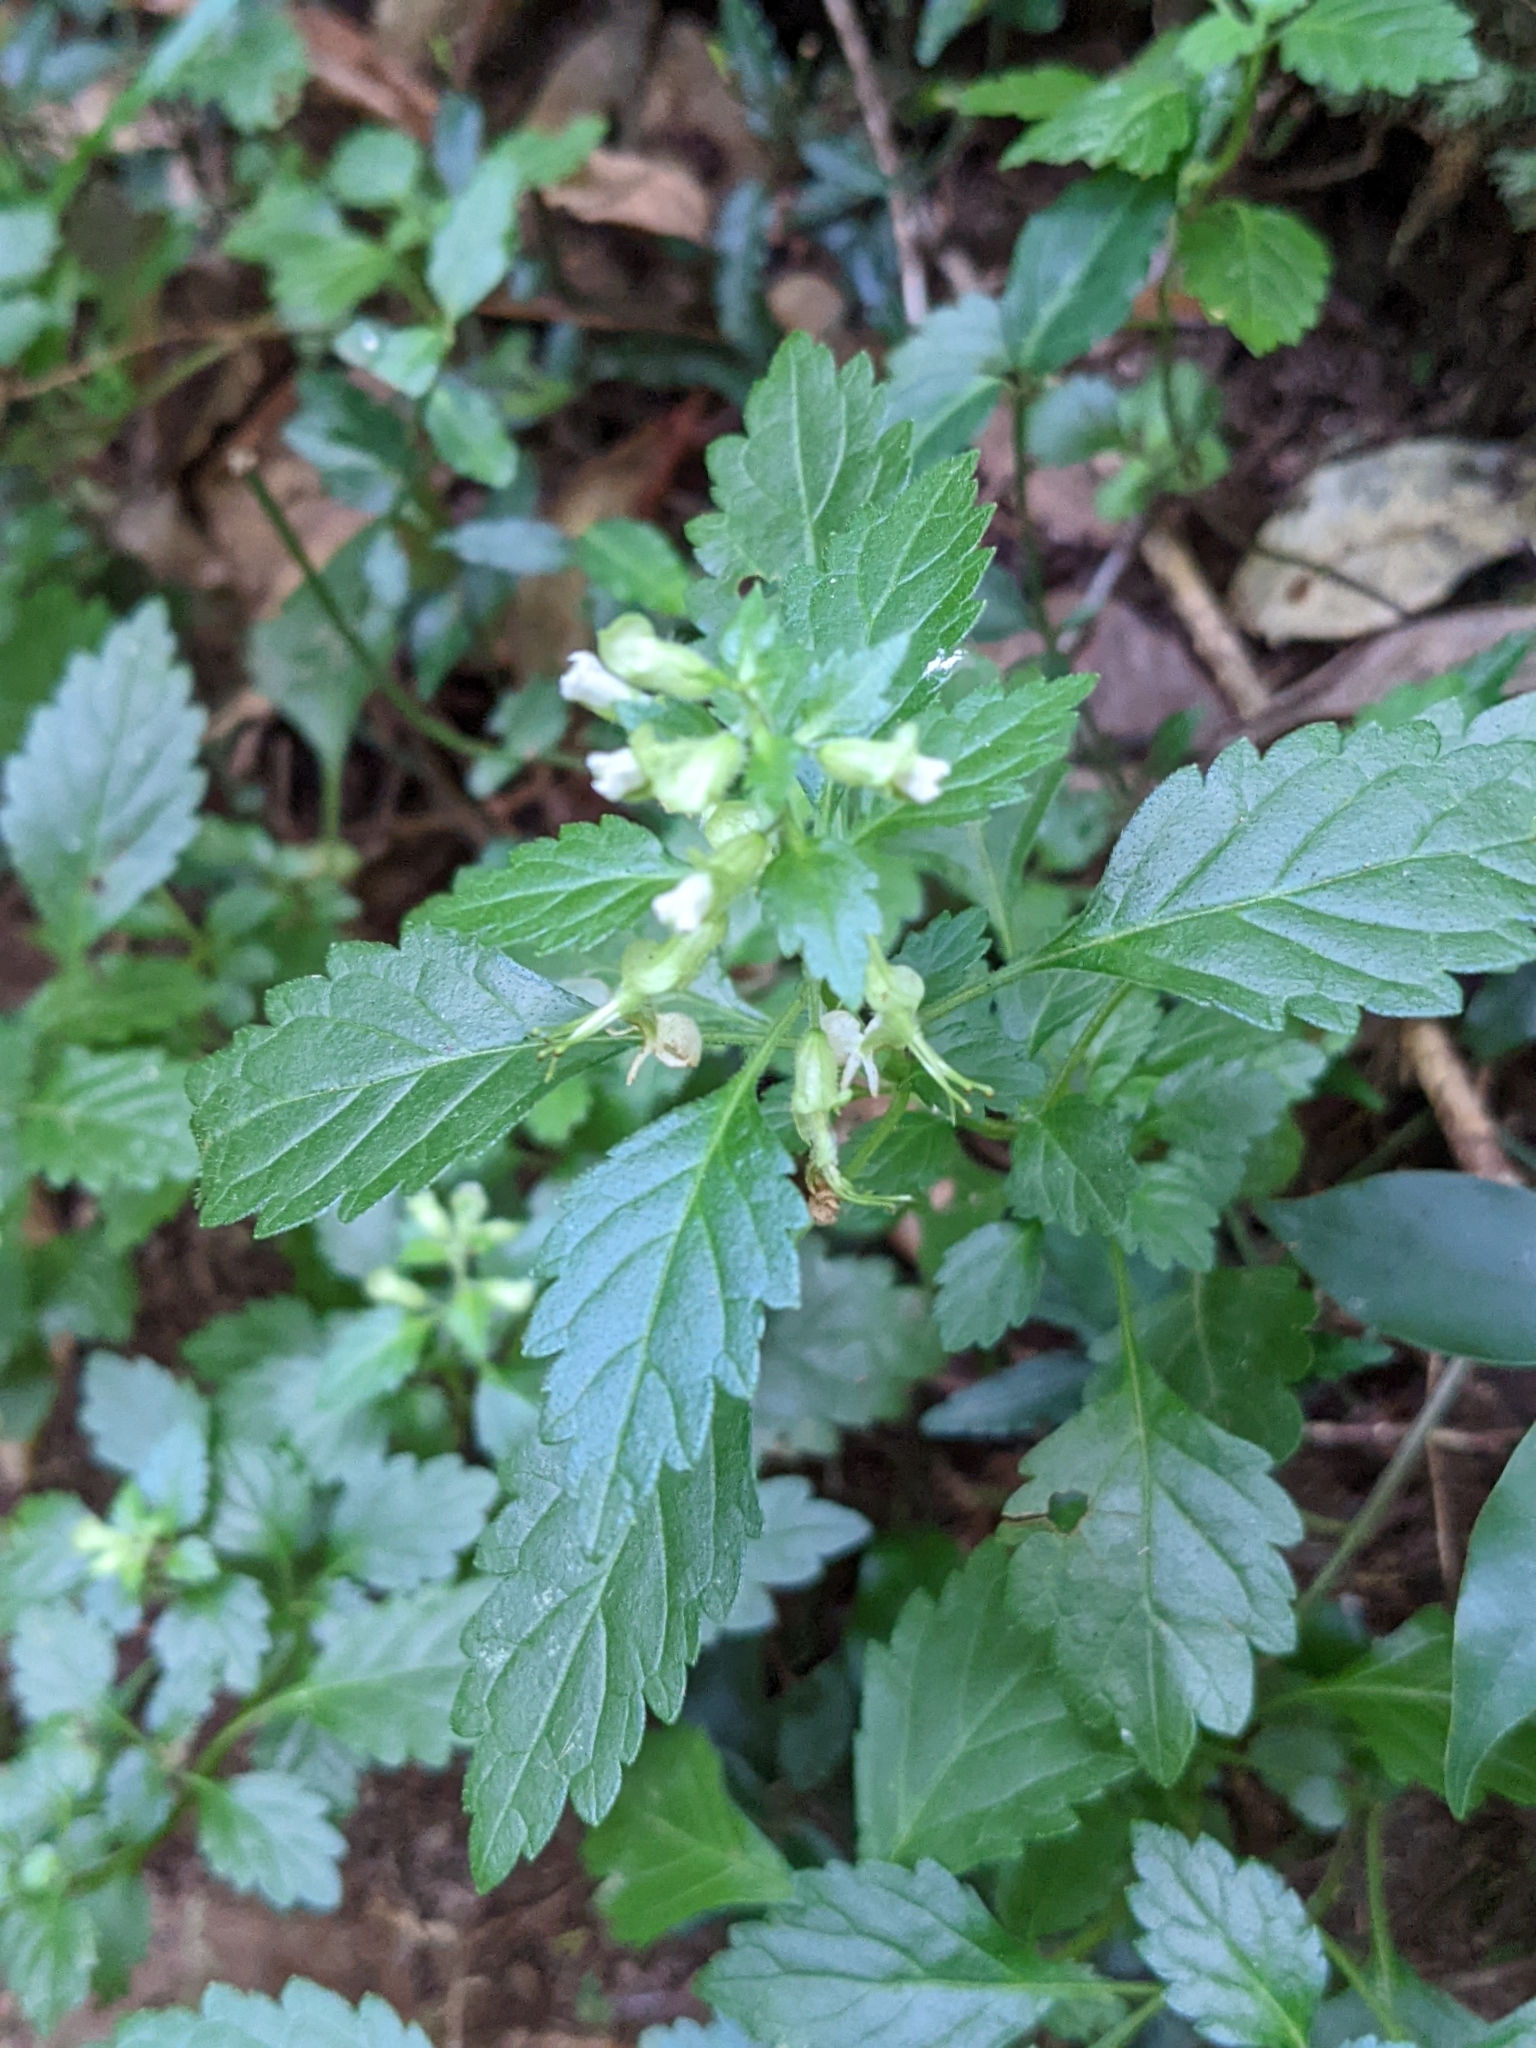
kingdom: Plantae
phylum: Tracheophyta
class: Magnoliopsida
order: Lamiales
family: Lamiaceae
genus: Teucrium
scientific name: Teucrium taiwanianum
